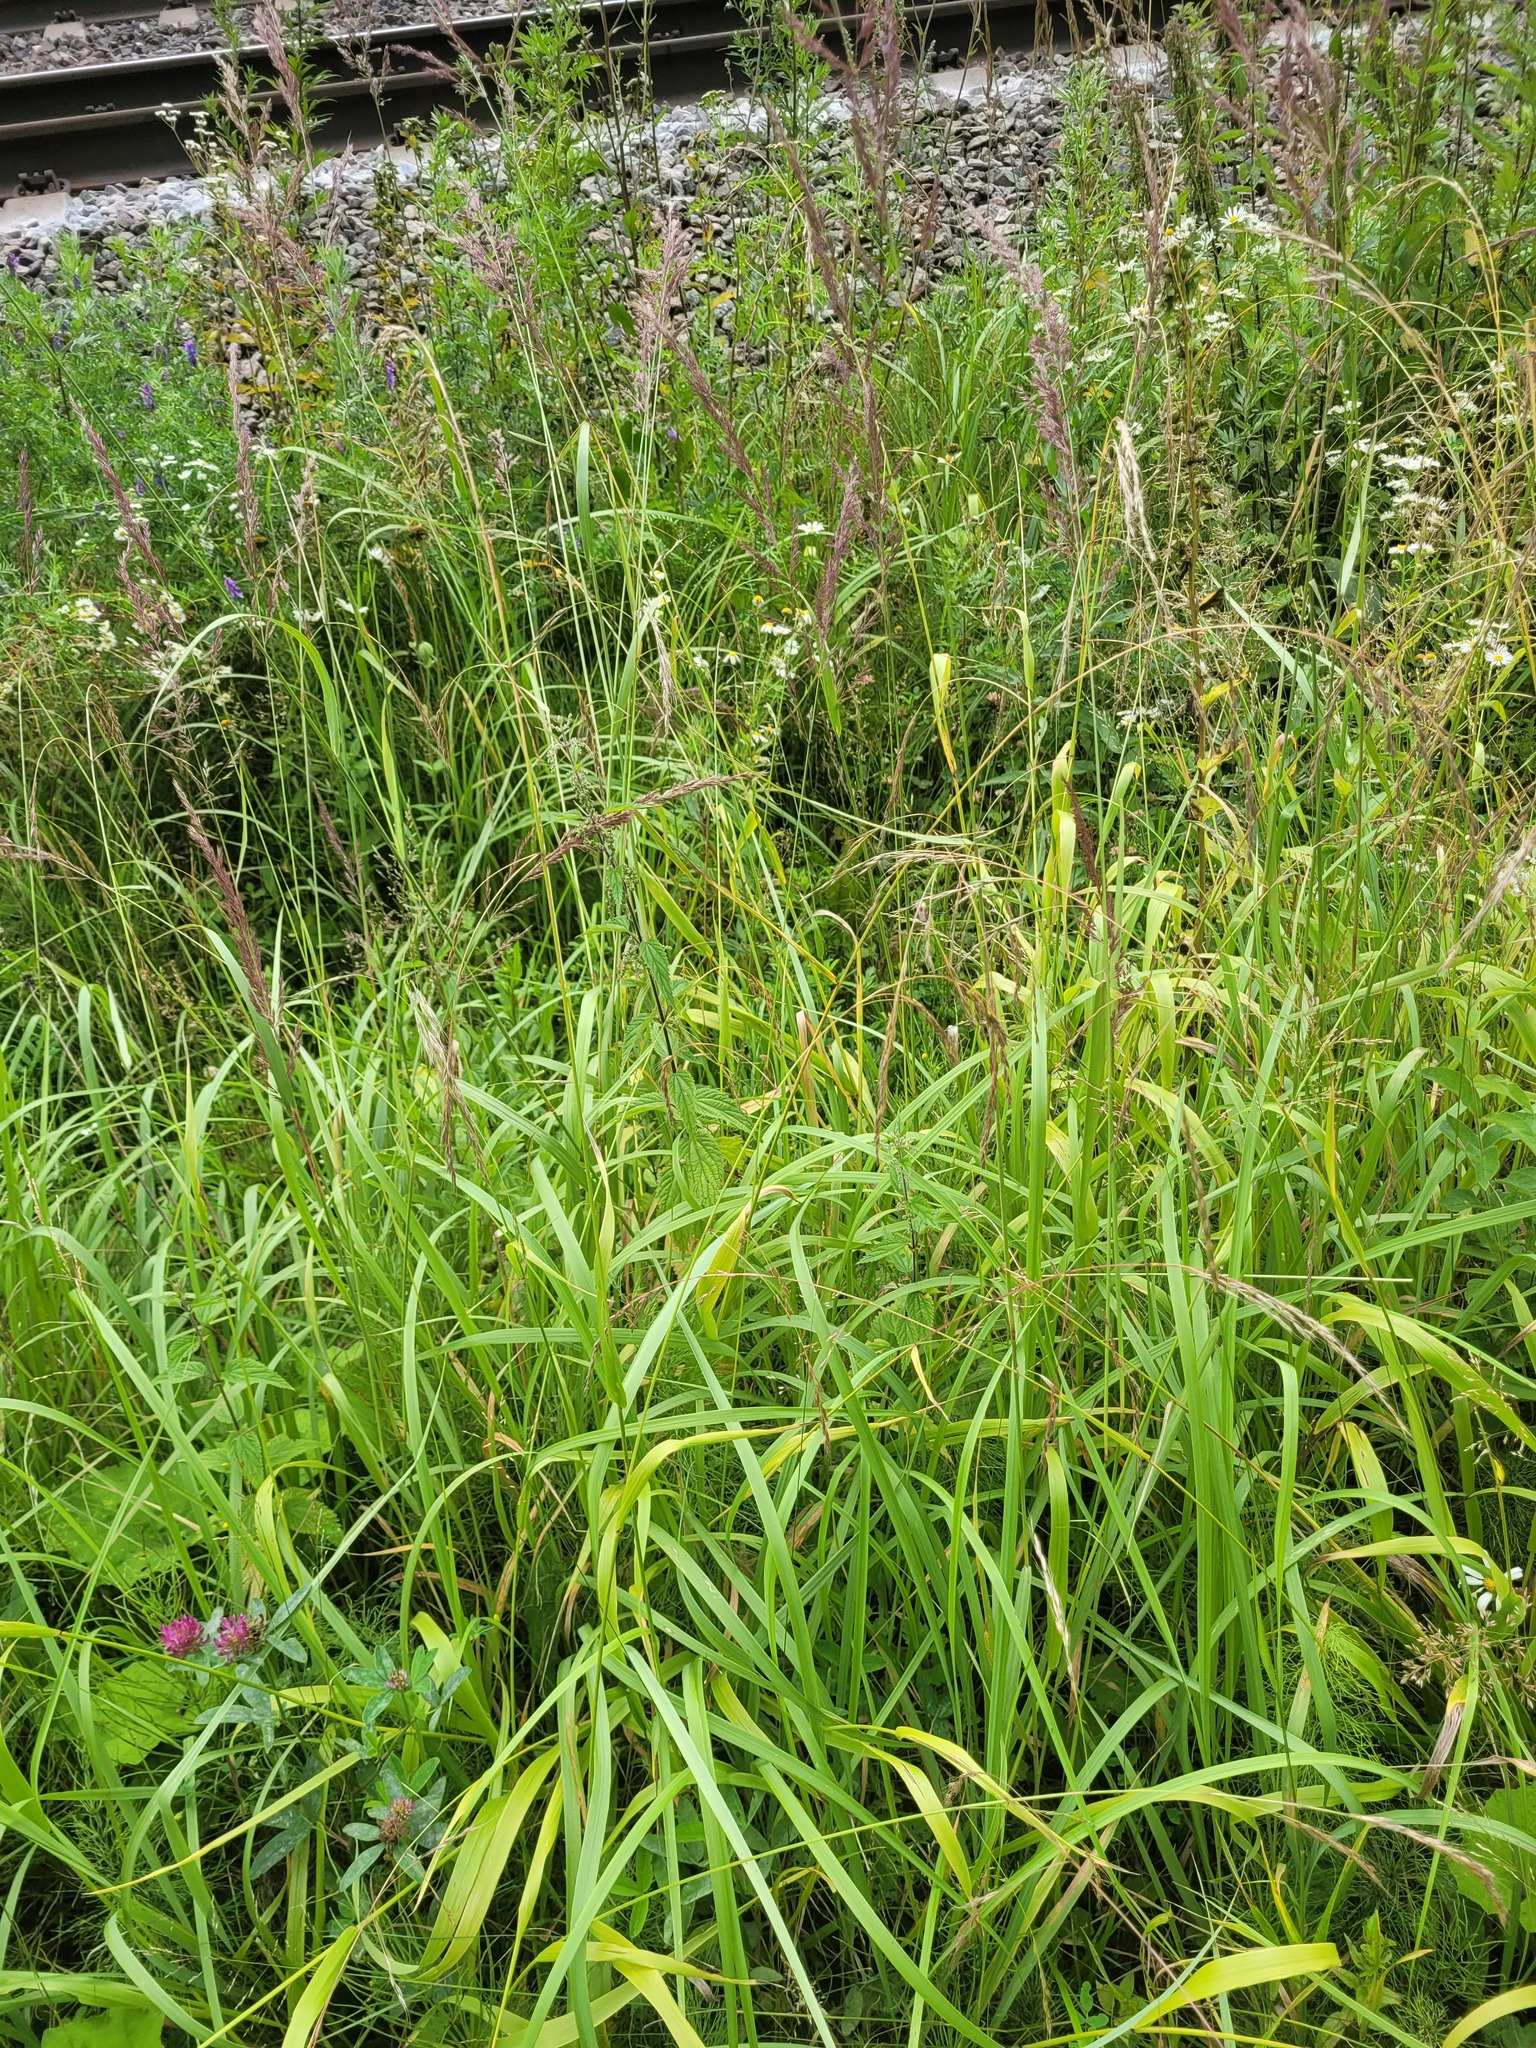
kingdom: Plantae
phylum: Tracheophyta
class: Liliopsida
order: Poales
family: Poaceae
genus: Lolium
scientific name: Lolium giganteum
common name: Giant fescue
